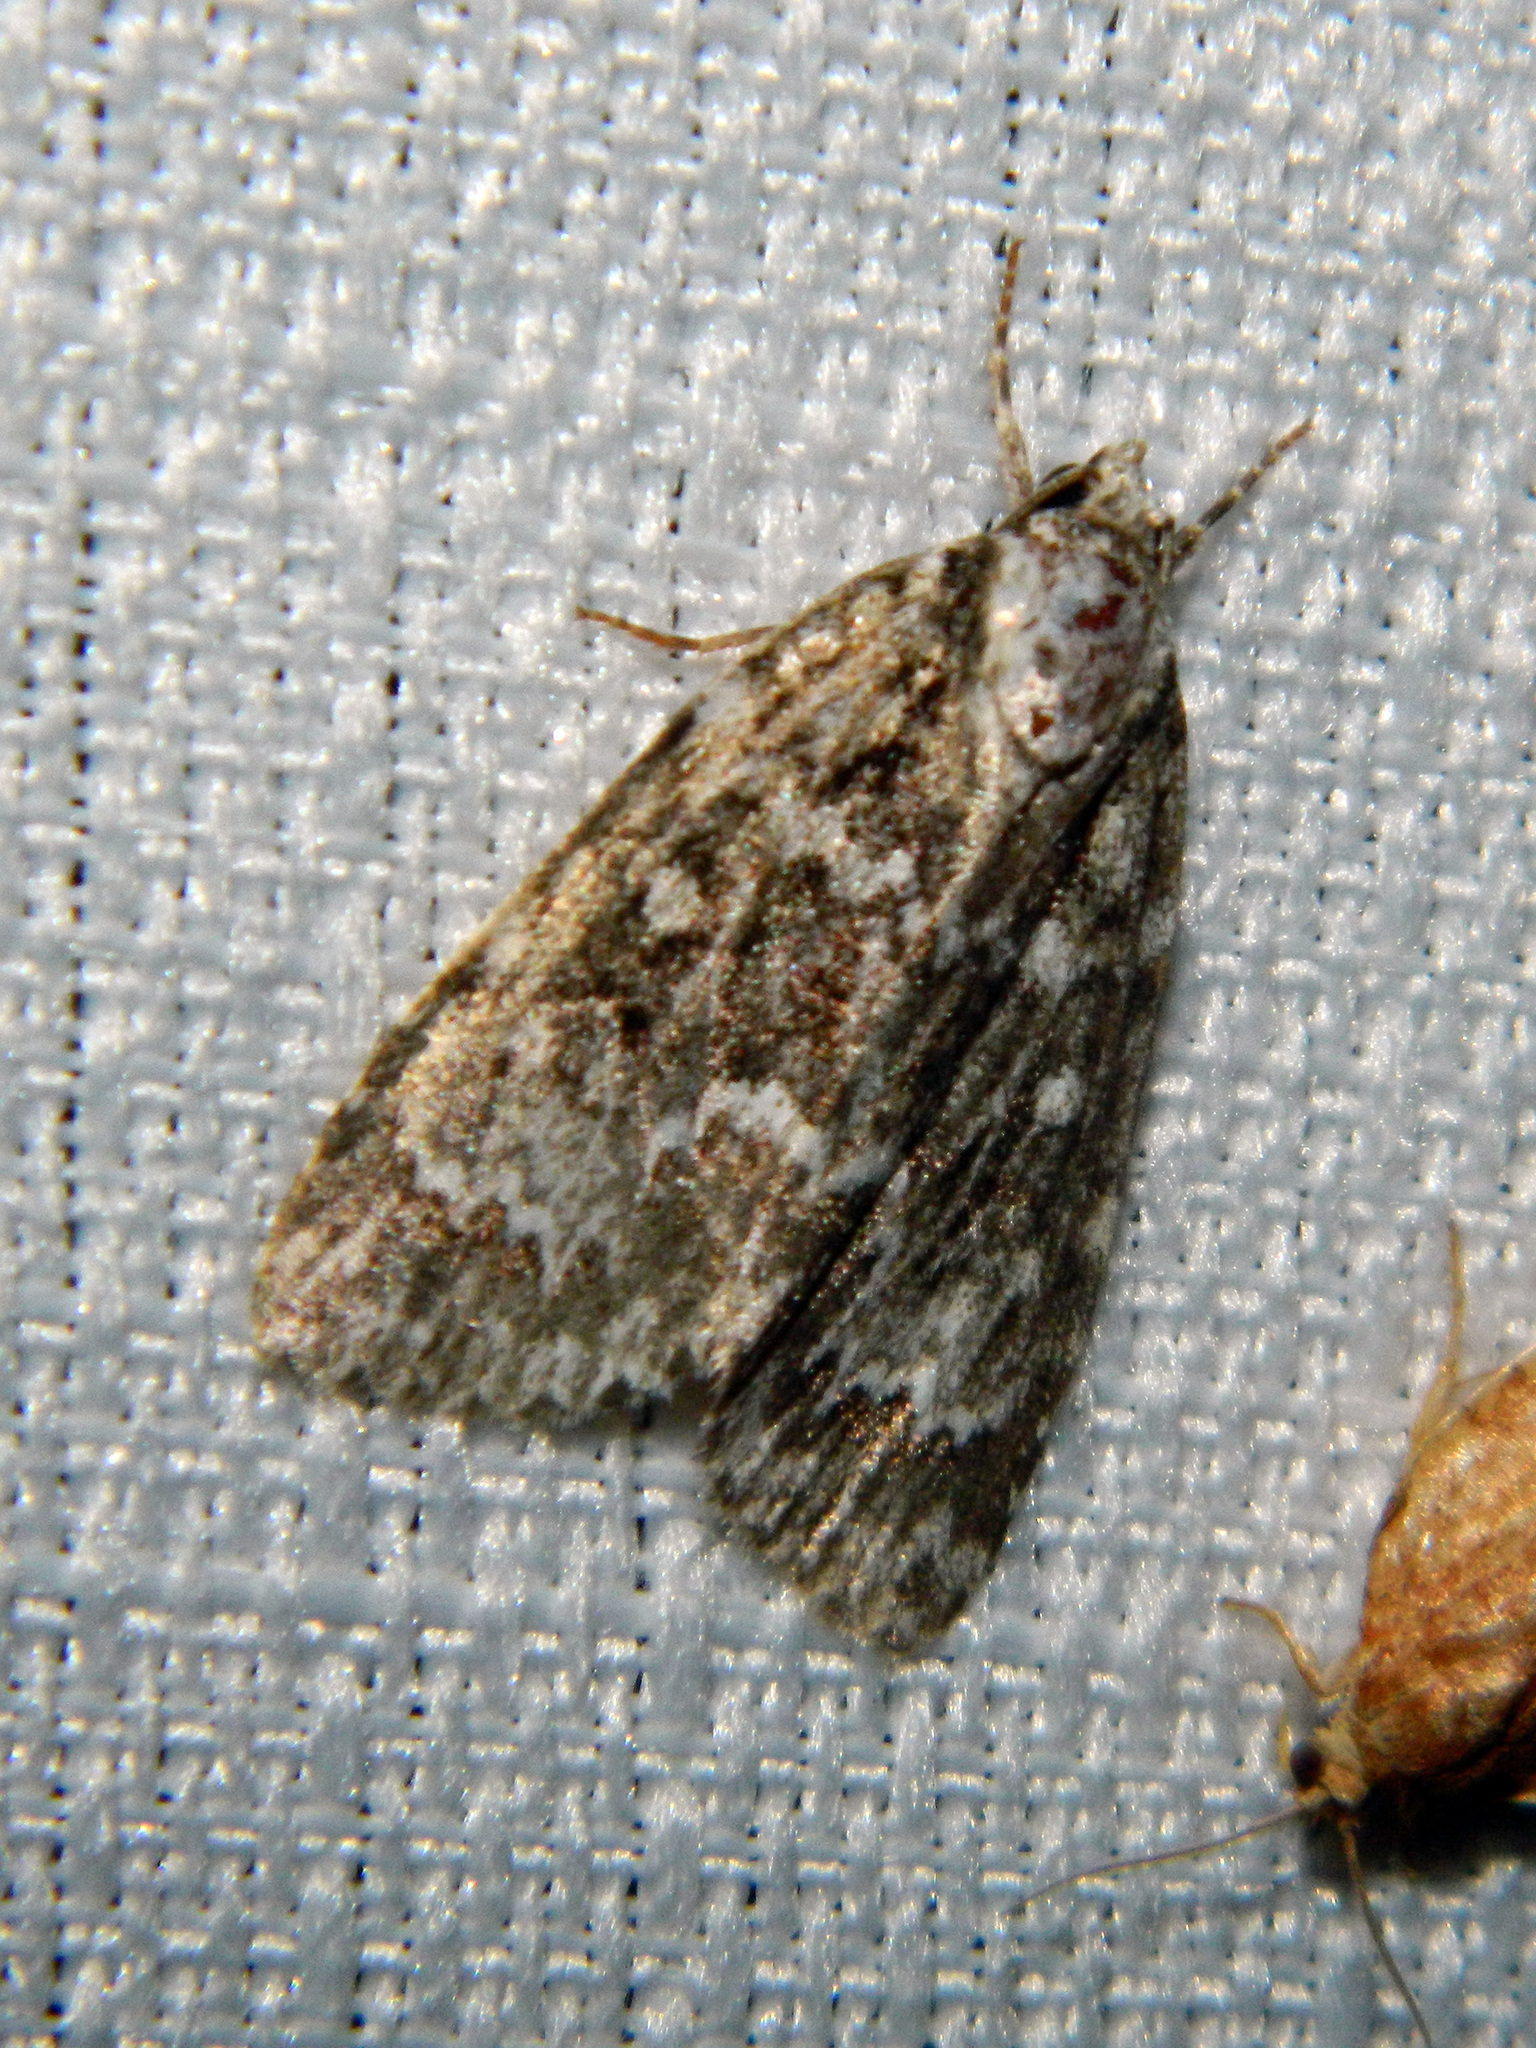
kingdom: Animalia
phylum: Arthropoda
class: Insecta
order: Lepidoptera
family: Noctuidae
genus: Acronicta
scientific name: Acronicta fragilis
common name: Fragile dagger
